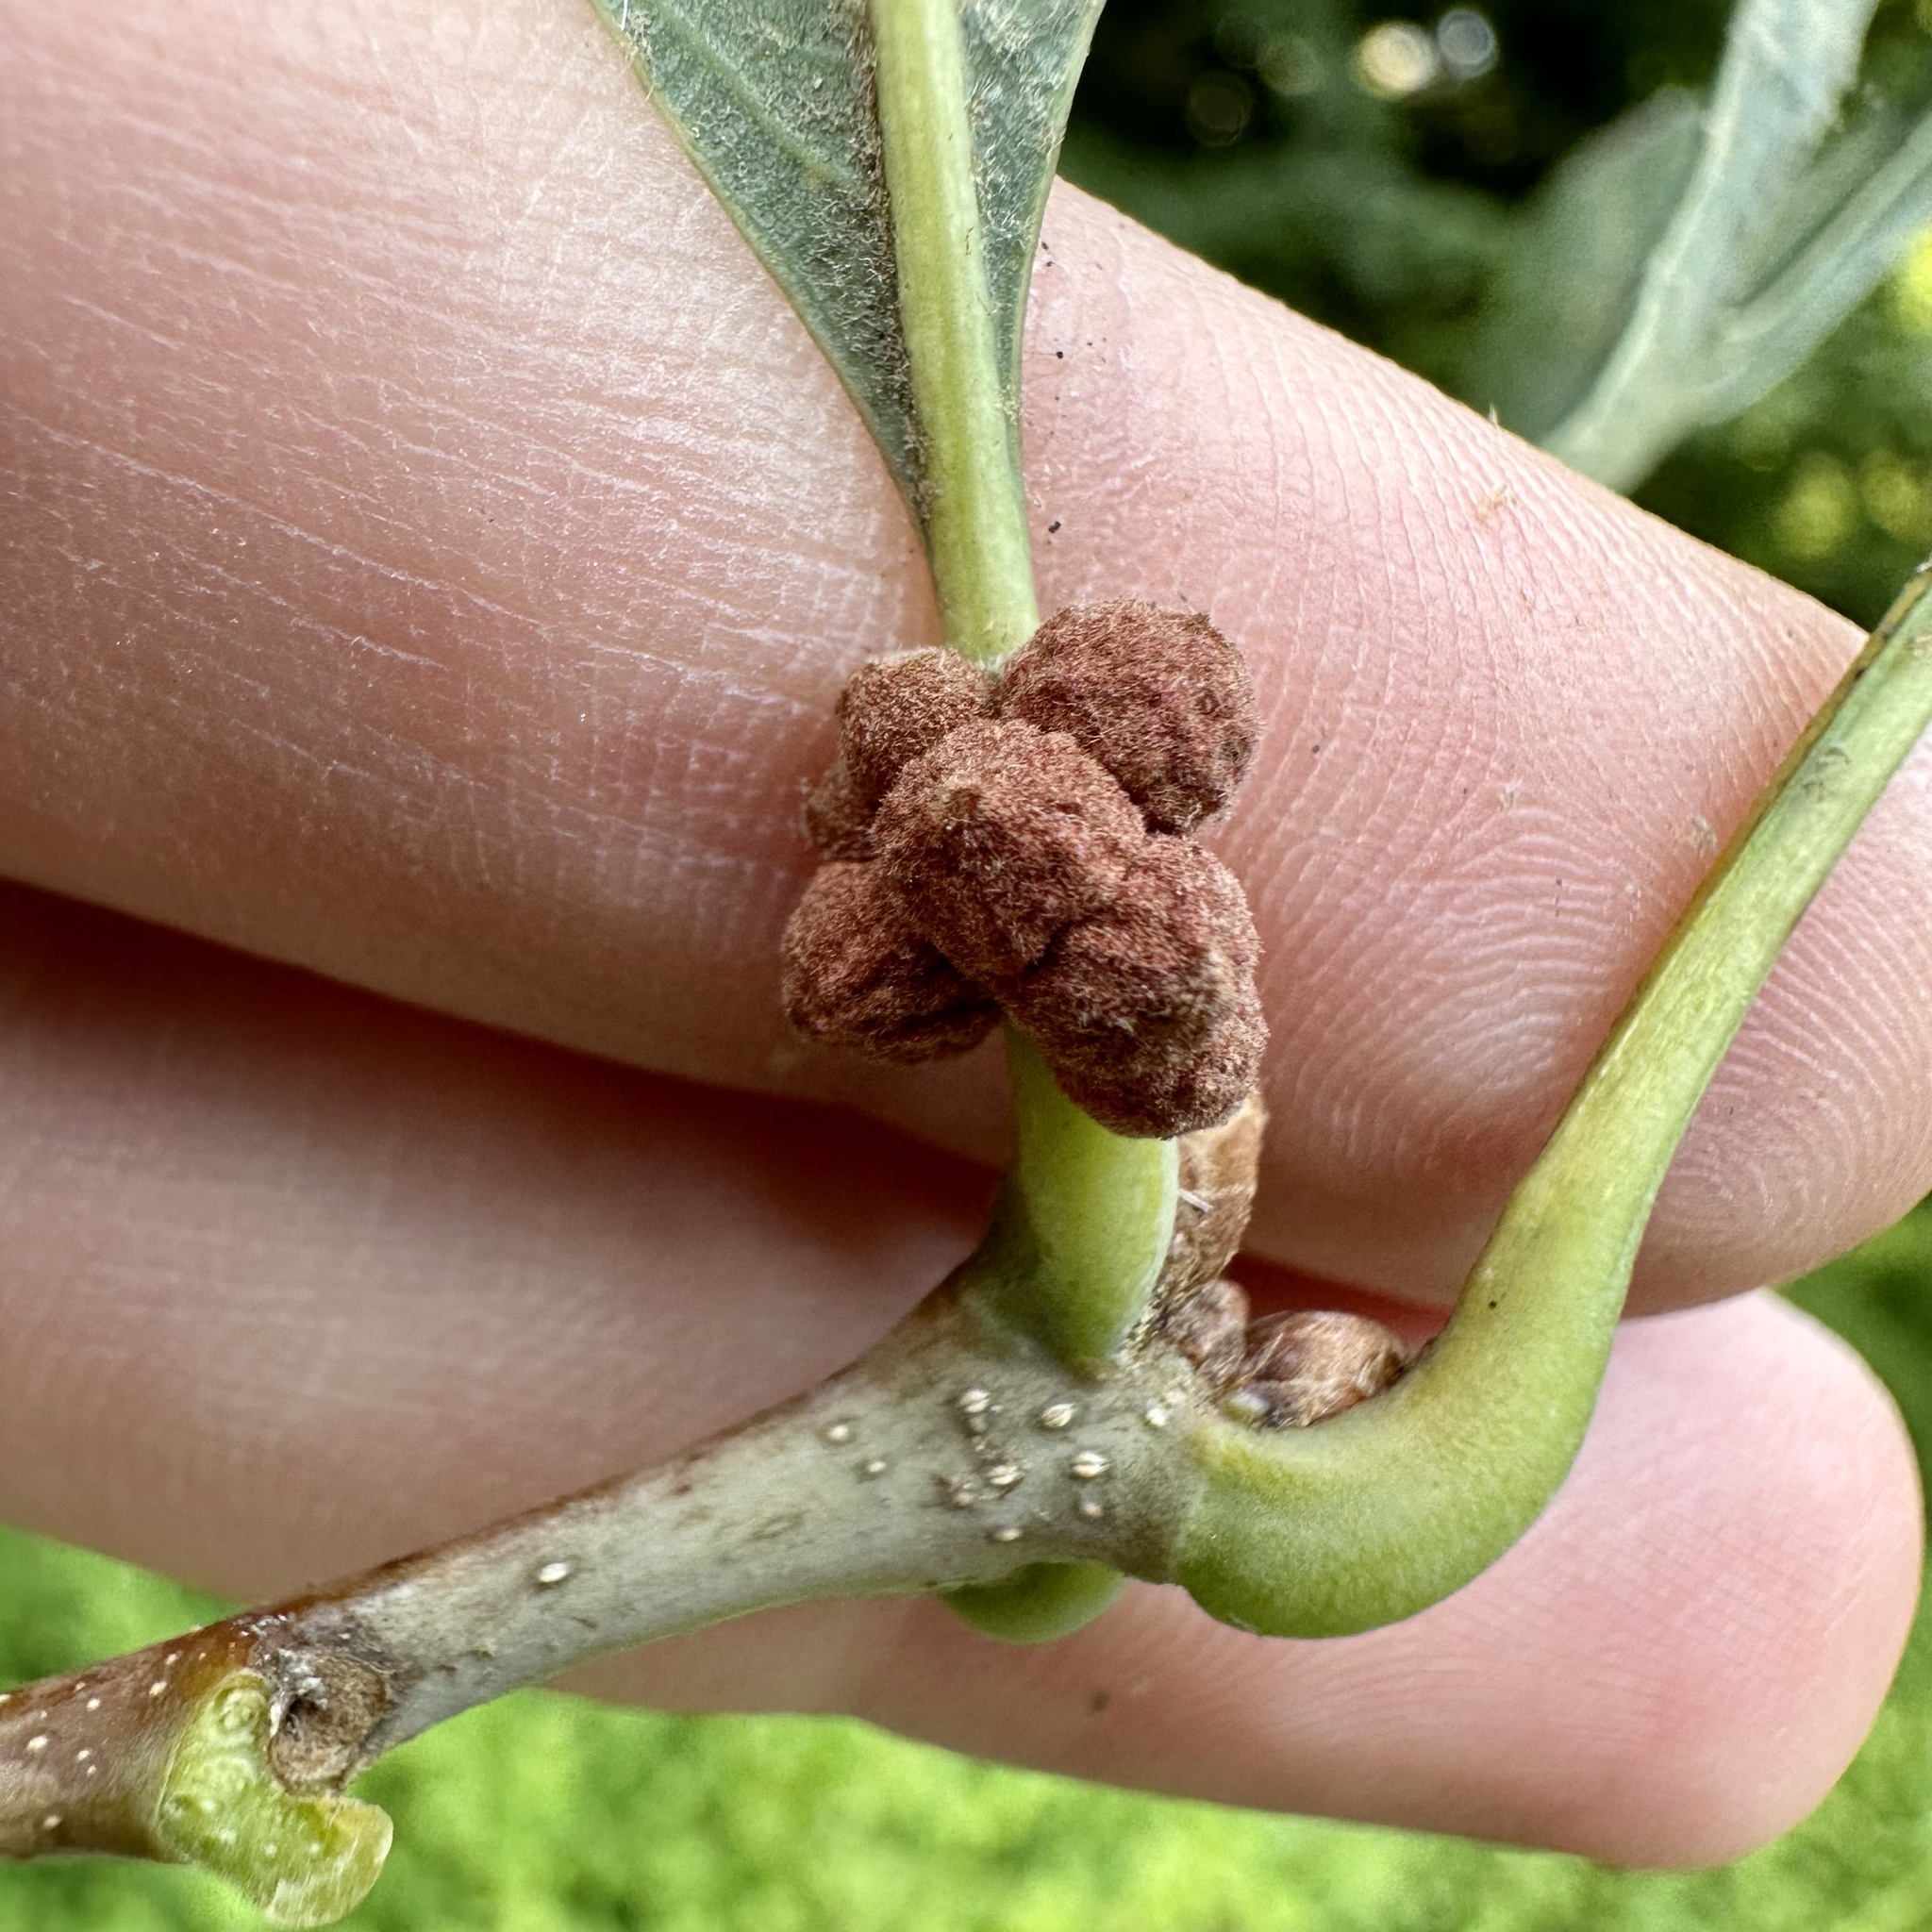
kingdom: Animalia
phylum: Arthropoda
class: Insecta
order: Hymenoptera
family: Cynipidae
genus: Andricus
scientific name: Andricus
